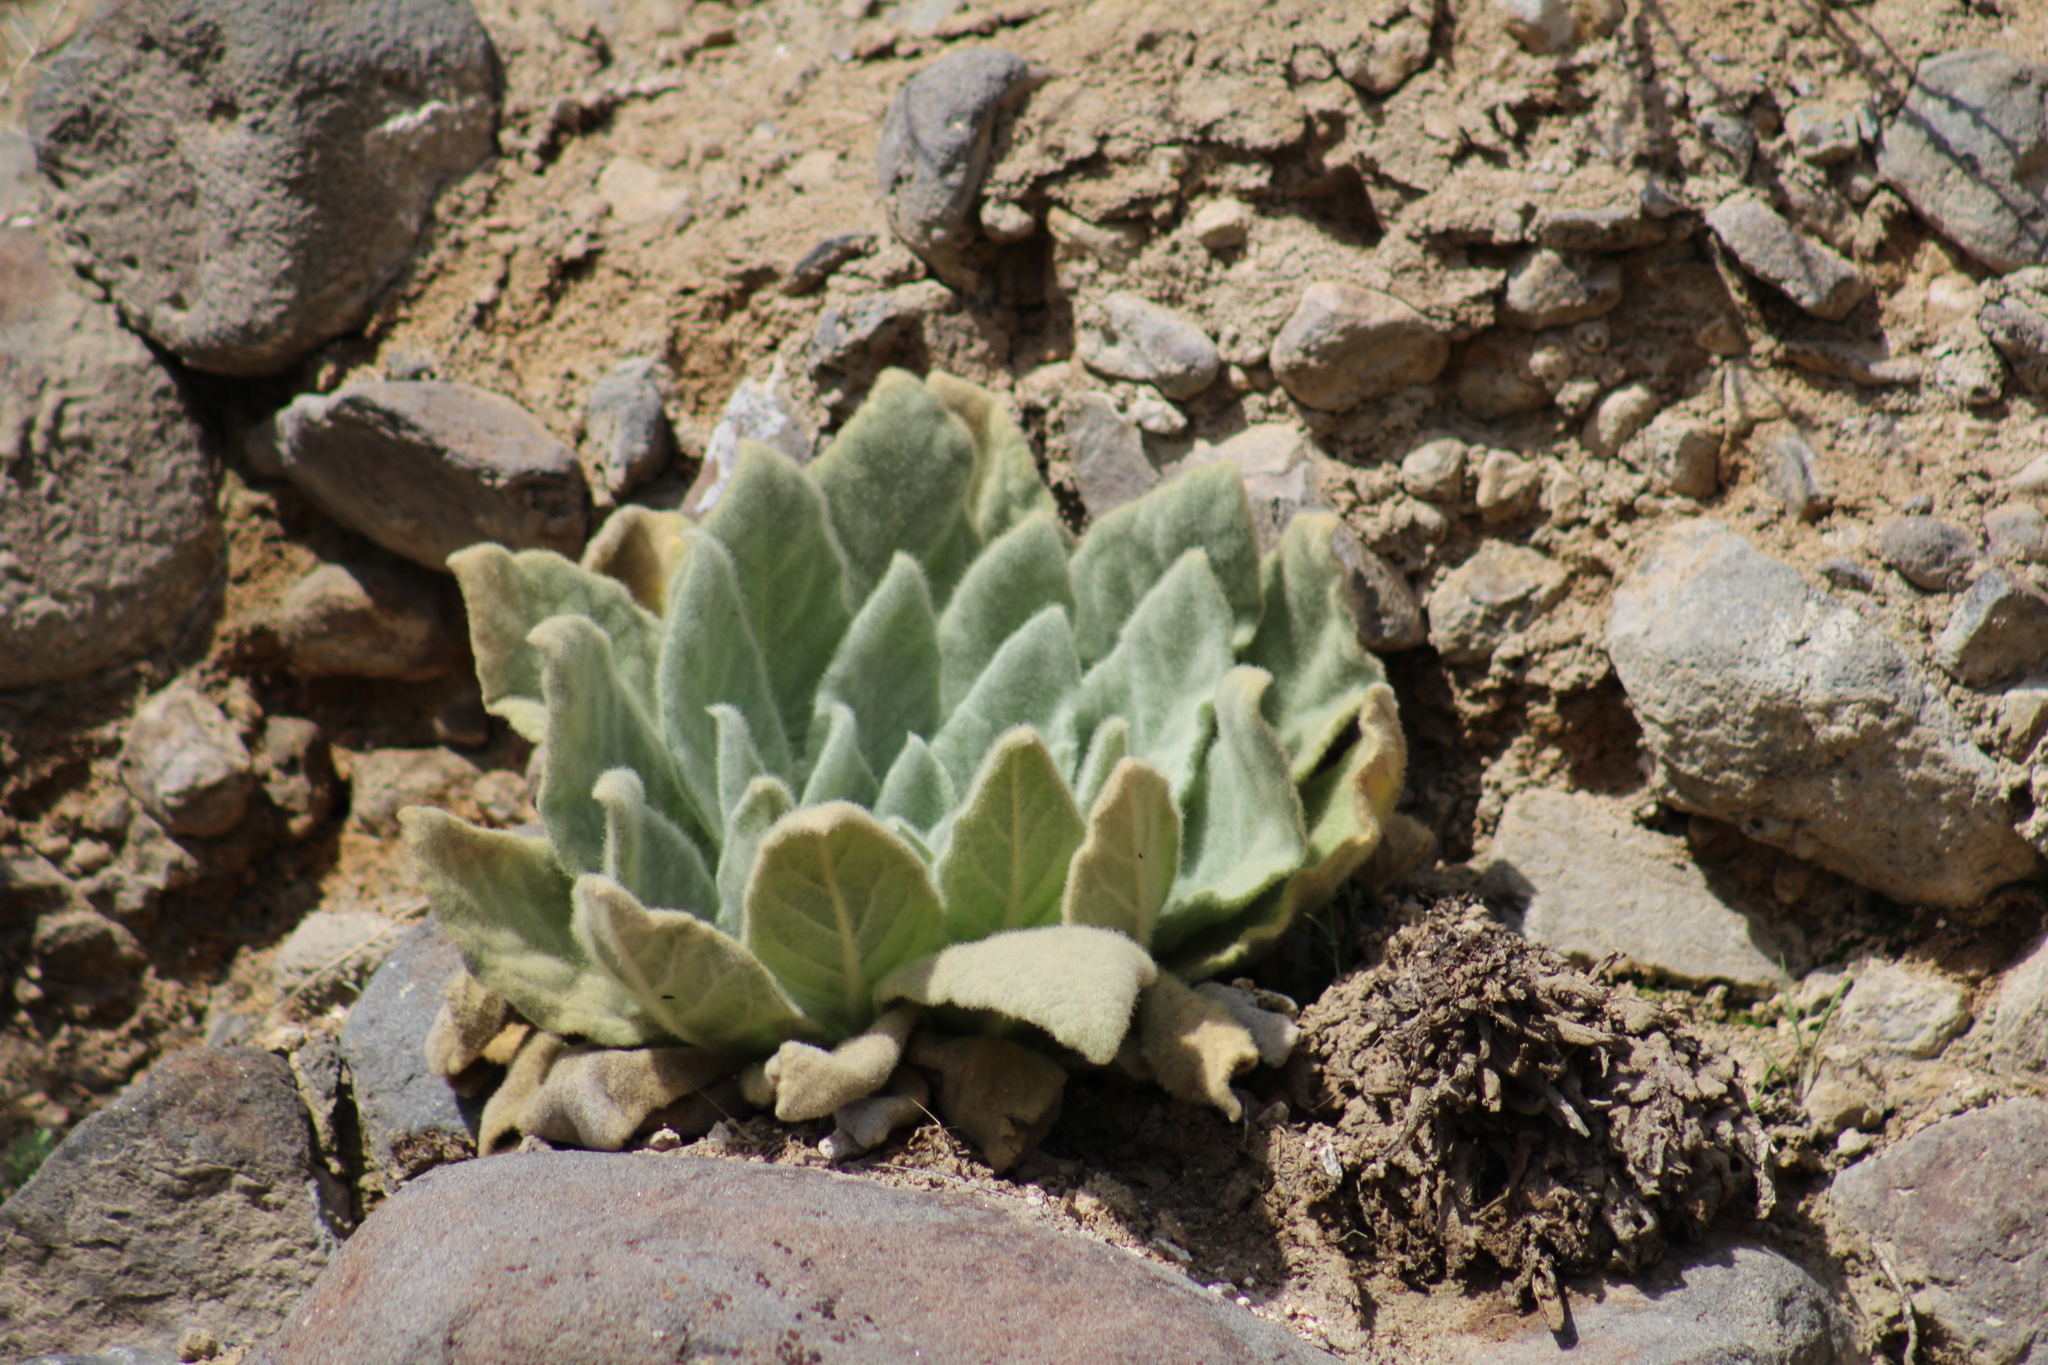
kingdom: Plantae
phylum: Tracheophyta
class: Magnoliopsida
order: Lamiales
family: Scrophulariaceae
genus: Verbascum
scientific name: Verbascum thapsus
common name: Common mullein
